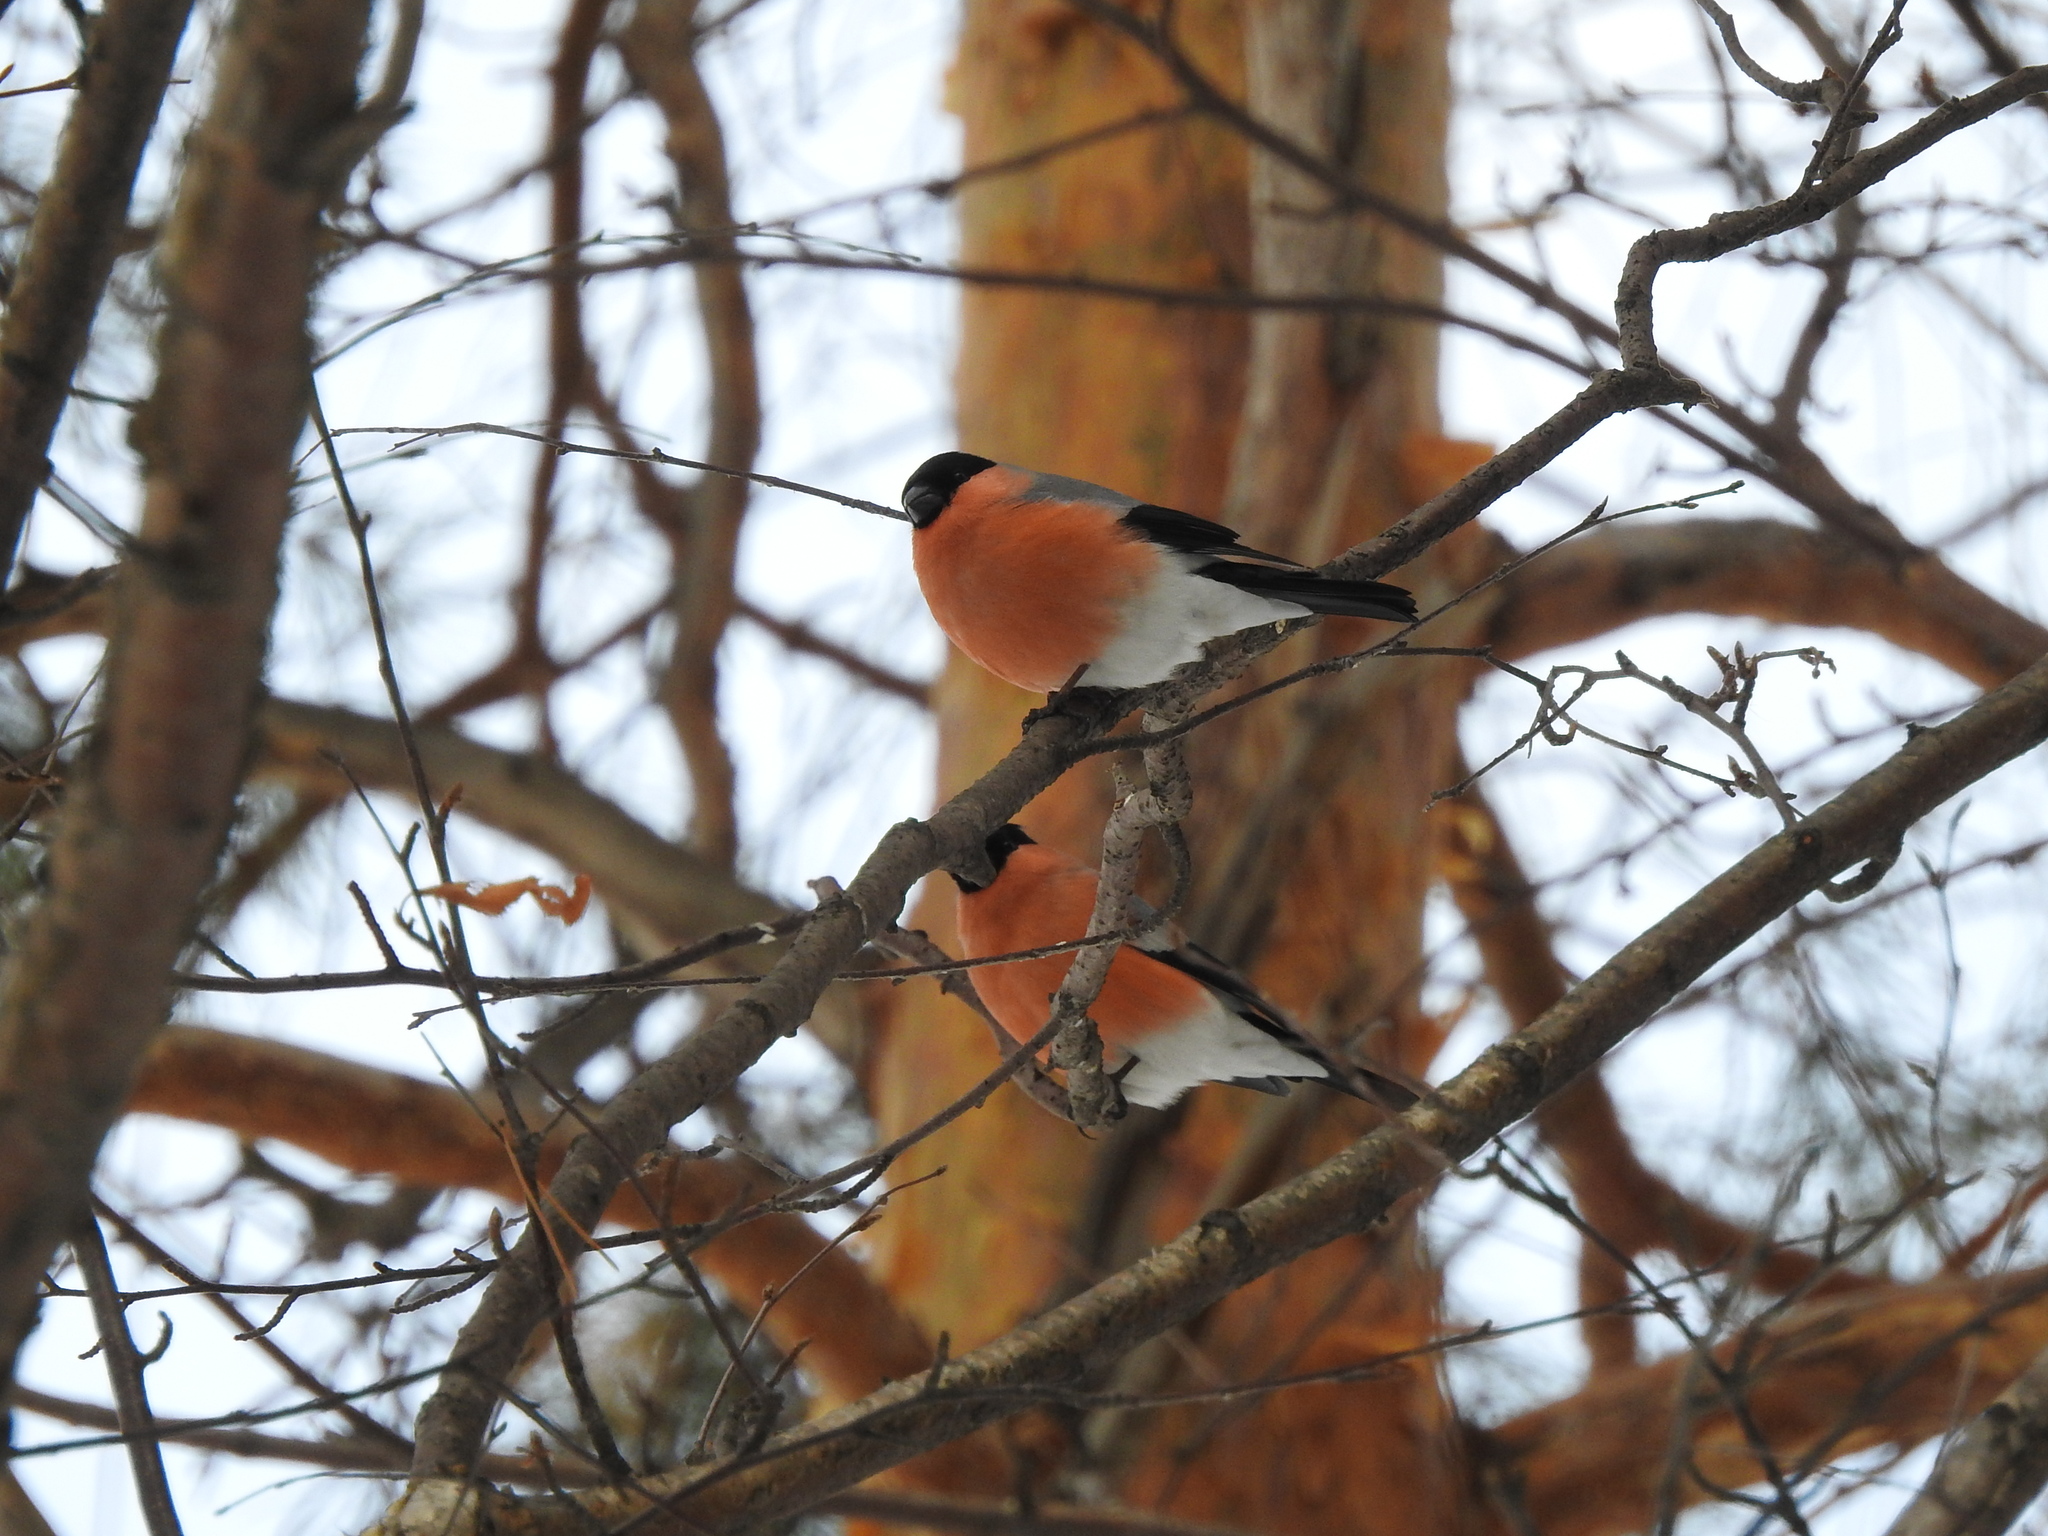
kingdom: Animalia
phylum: Chordata
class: Aves
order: Passeriformes
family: Fringillidae
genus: Pyrrhula
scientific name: Pyrrhula pyrrhula
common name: Eurasian bullfinch
